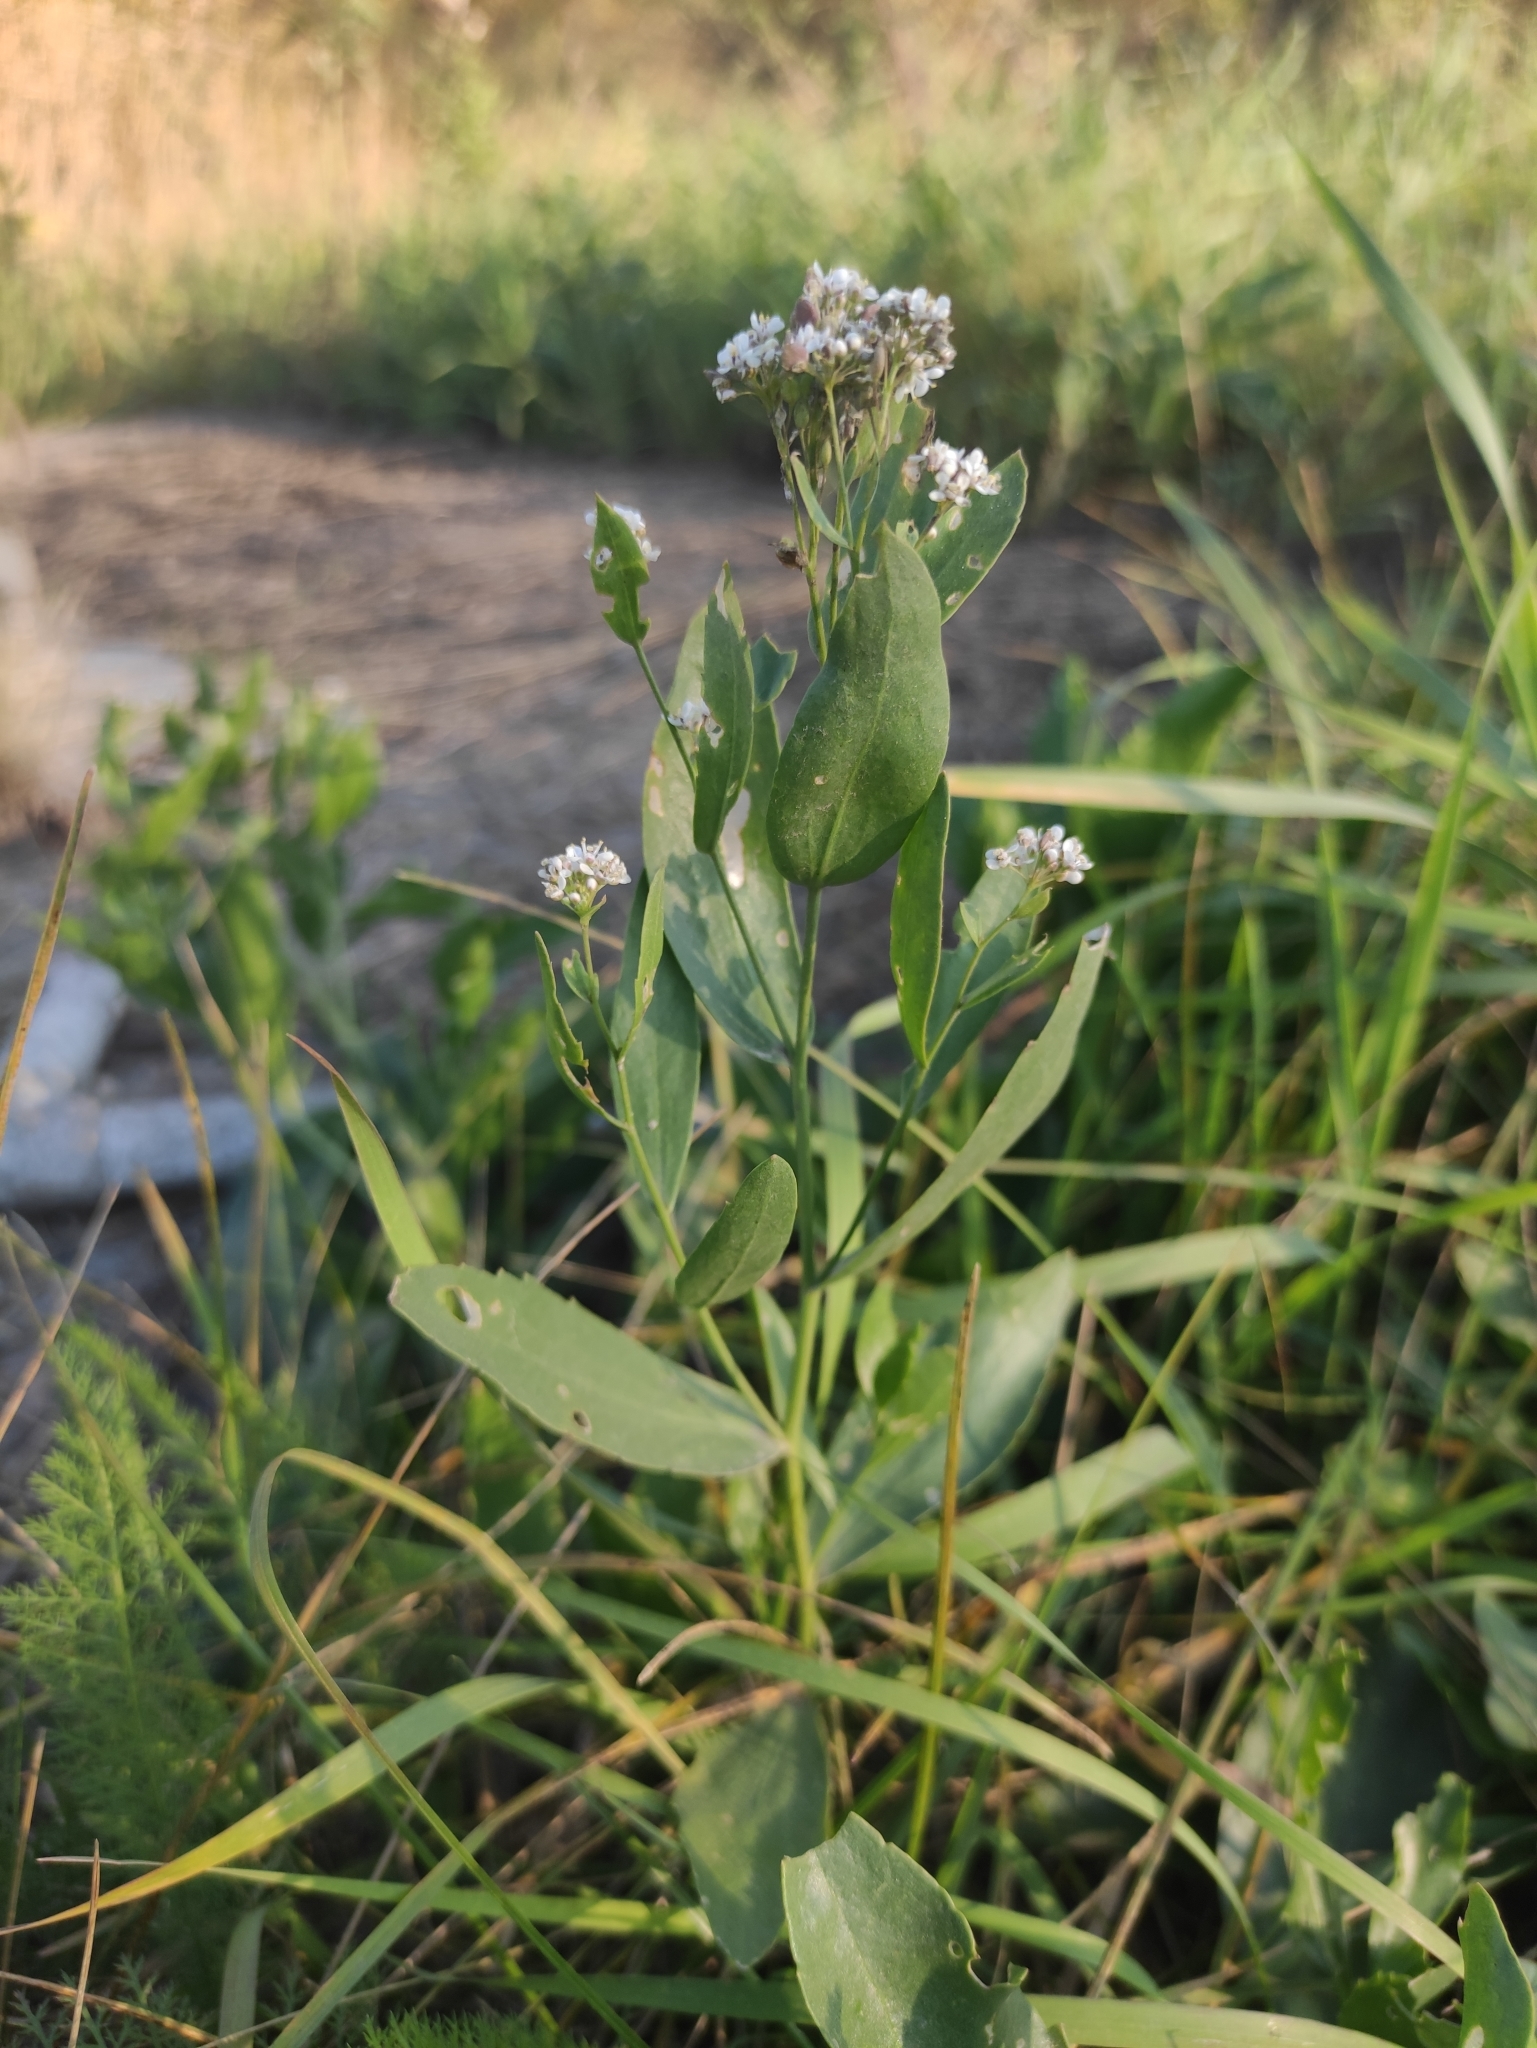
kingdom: Plantae
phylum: Tracheophyta
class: Magnoliopsida
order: Brassicales
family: Brassicaceae
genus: Lepidium
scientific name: Lepidium latifolium
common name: Dittander
